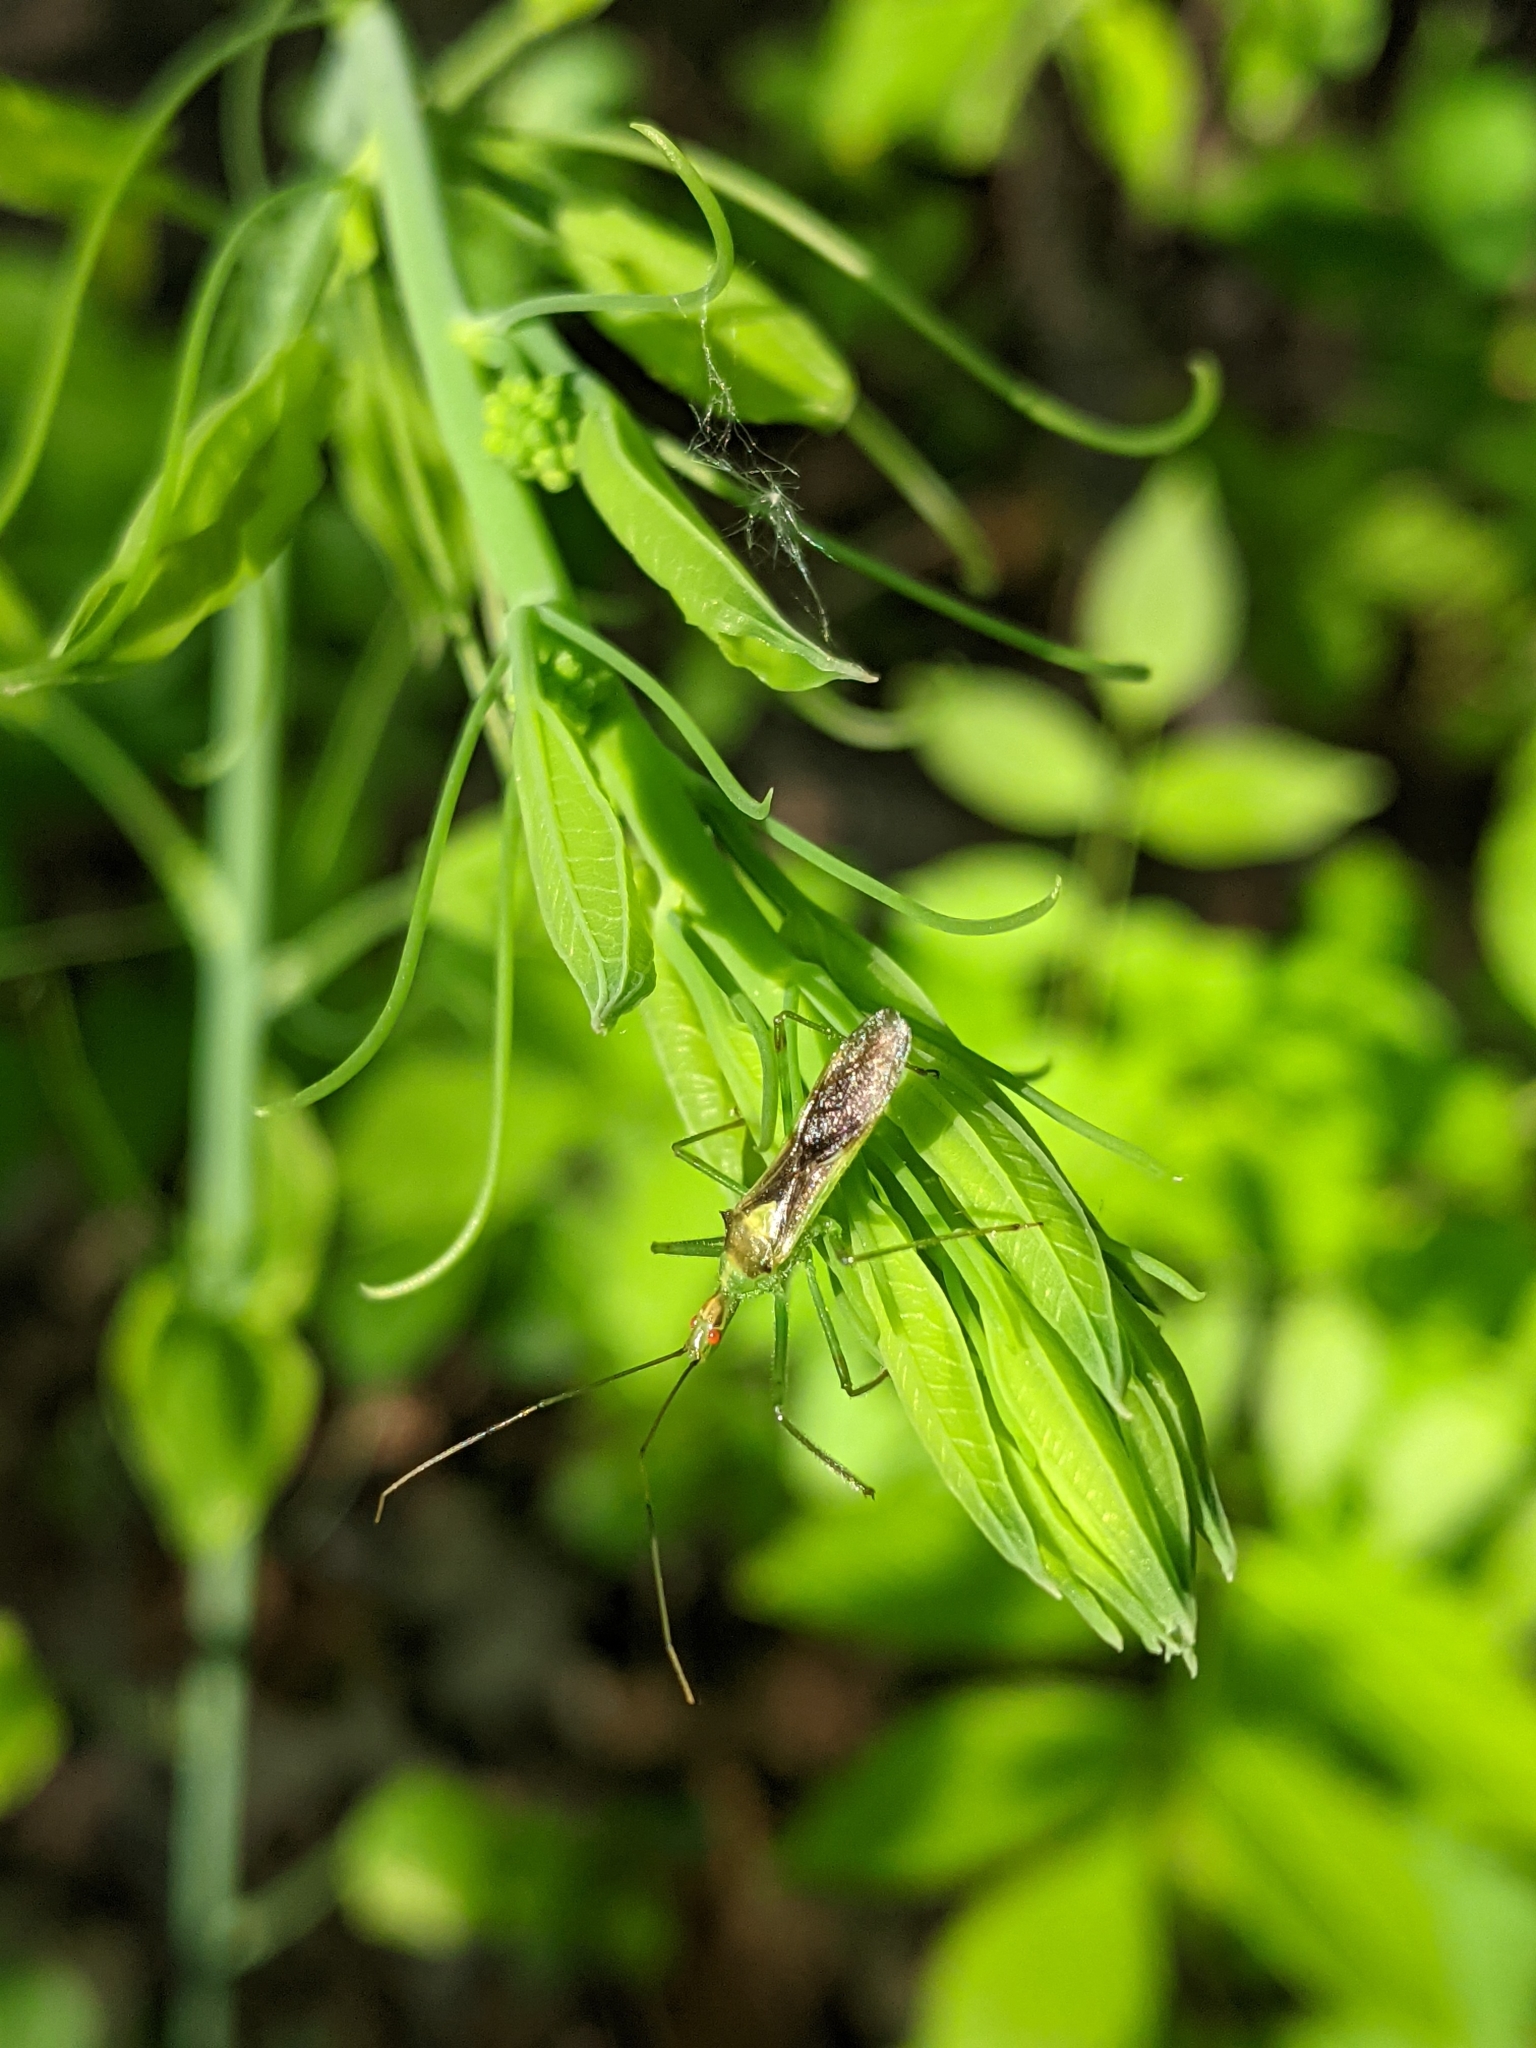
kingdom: Animalia
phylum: Arthropoda
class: Insecta
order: Hemiptera
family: Reduviidae
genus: Zelus
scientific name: Zelus luridus
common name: Pale green assassin bug
